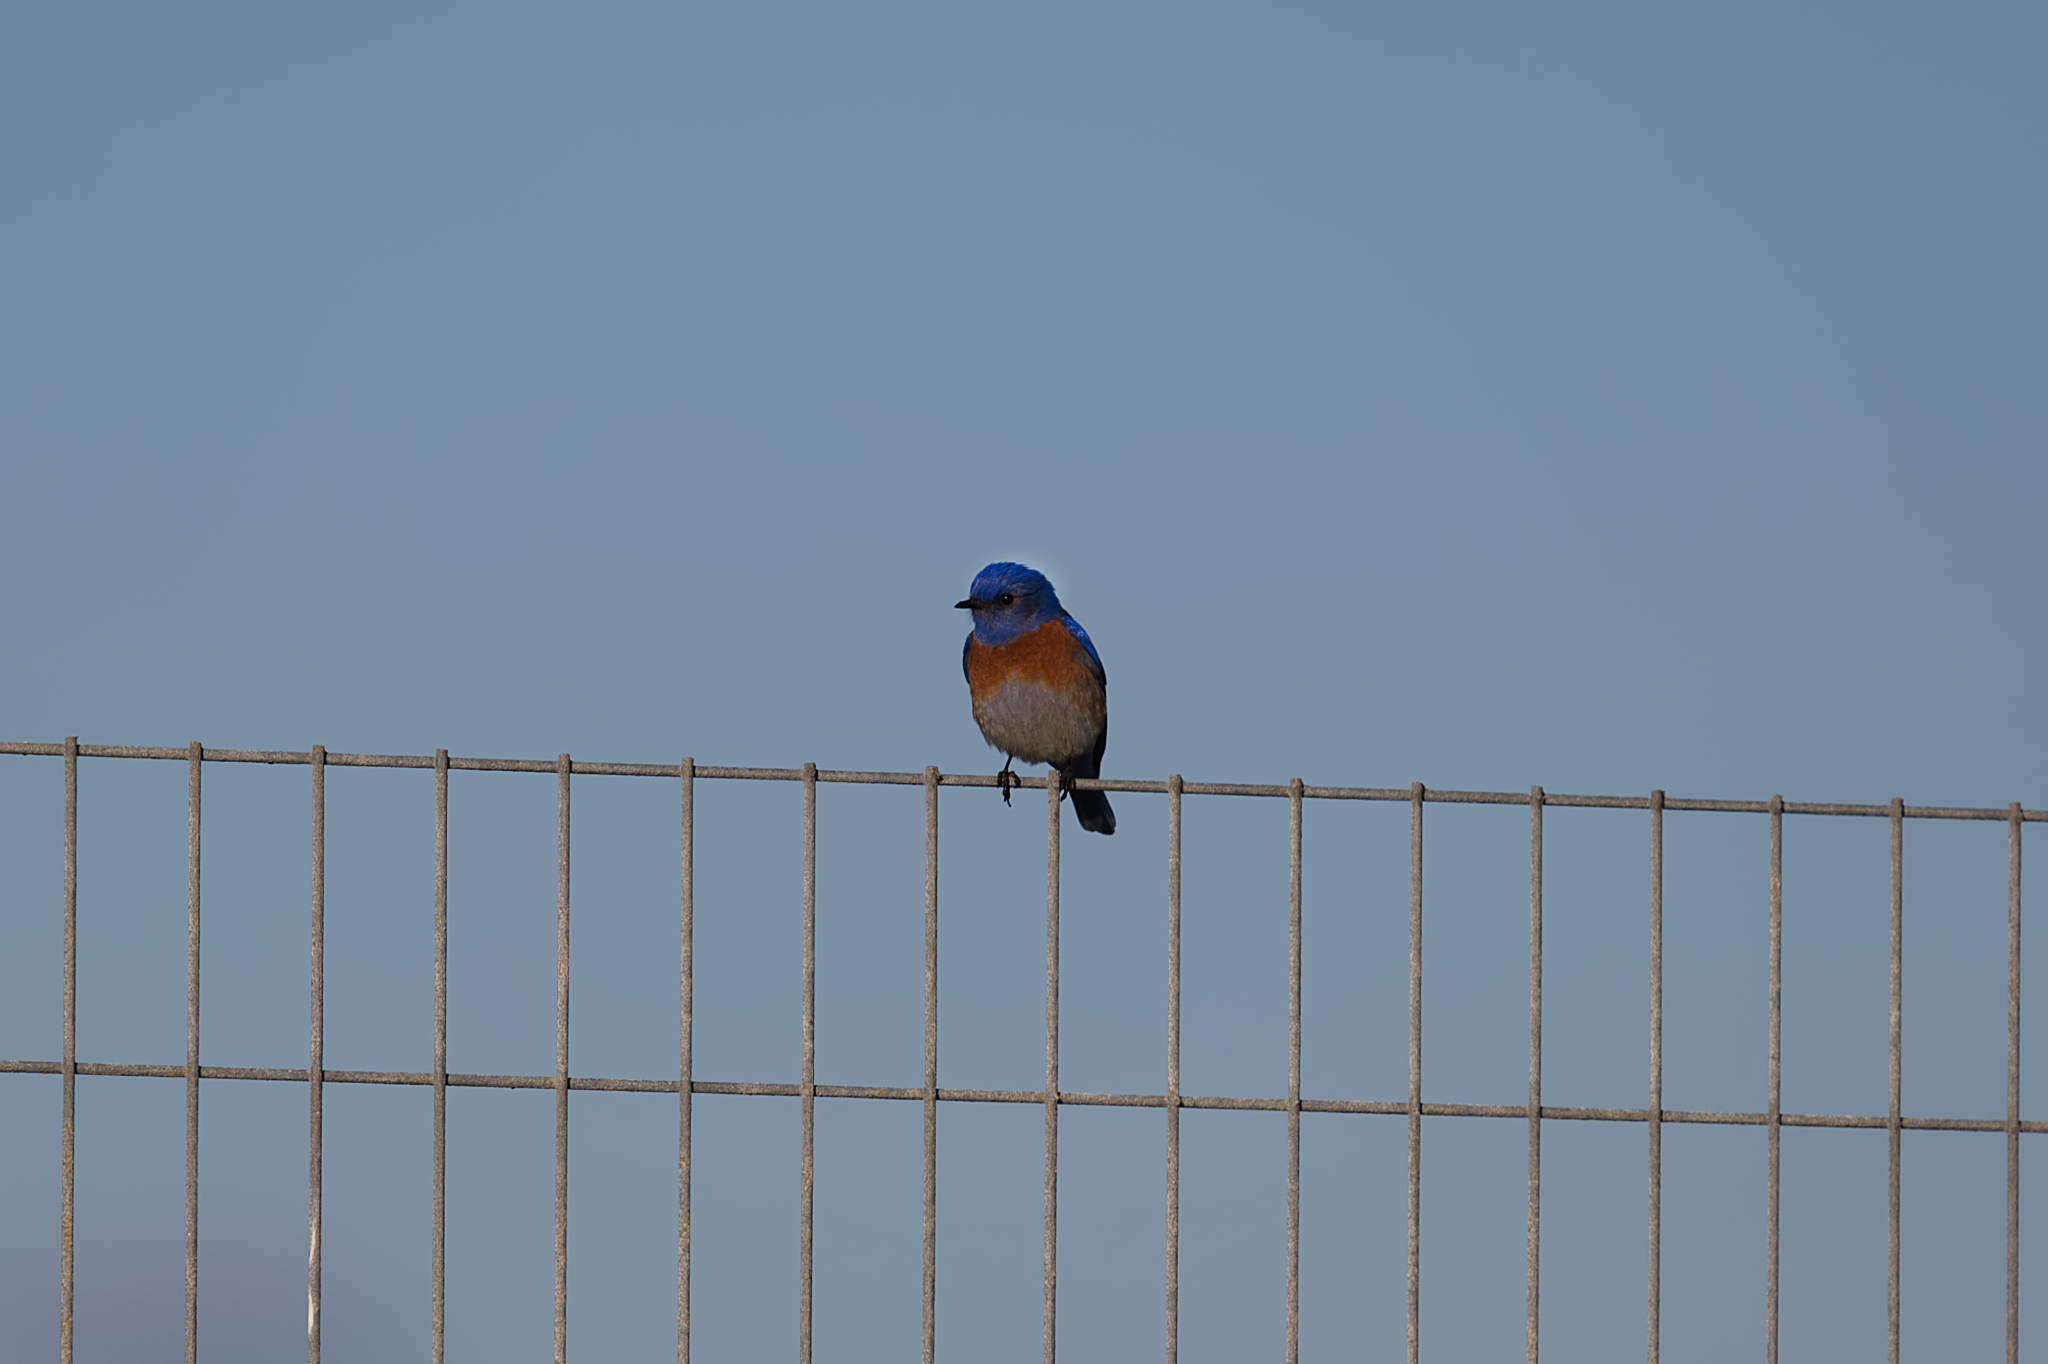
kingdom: Animalia
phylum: Chordata
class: Aves
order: Passeriformes
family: Turdidae
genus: Sialia
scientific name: Sialia mexicana
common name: Western bluebird
